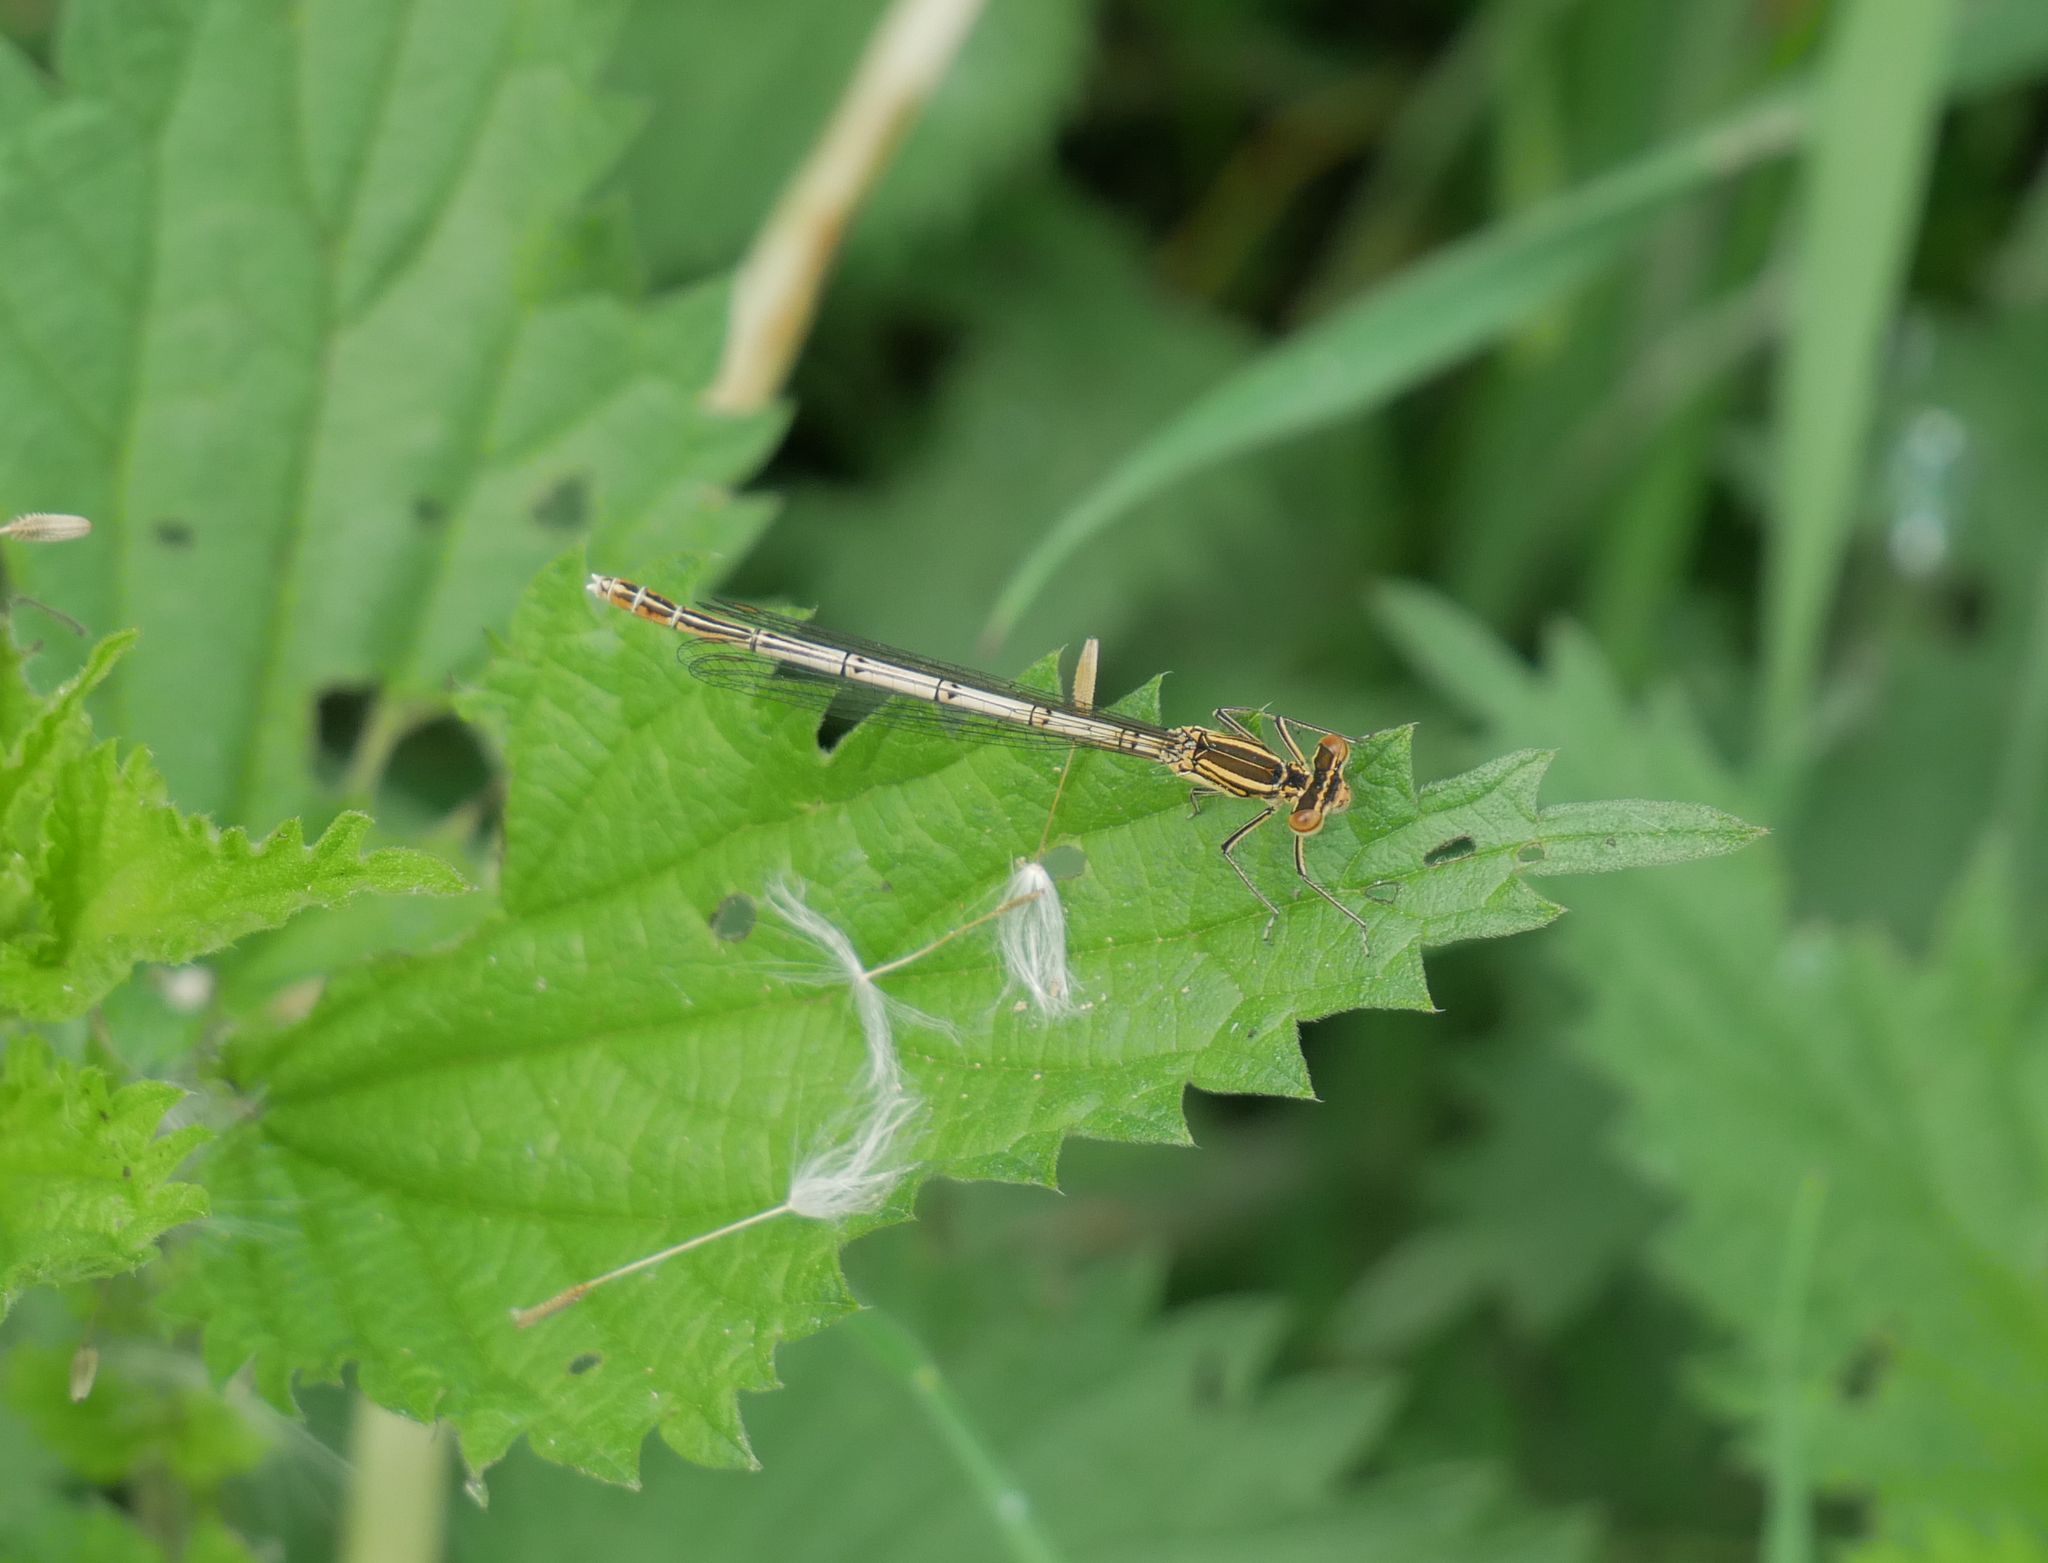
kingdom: Animalia
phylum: Arthropoda
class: Insecta
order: Odonata
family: Platycnemididae
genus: Platycnemis
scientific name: Platycnemis pennipes
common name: White-legged damselfly
